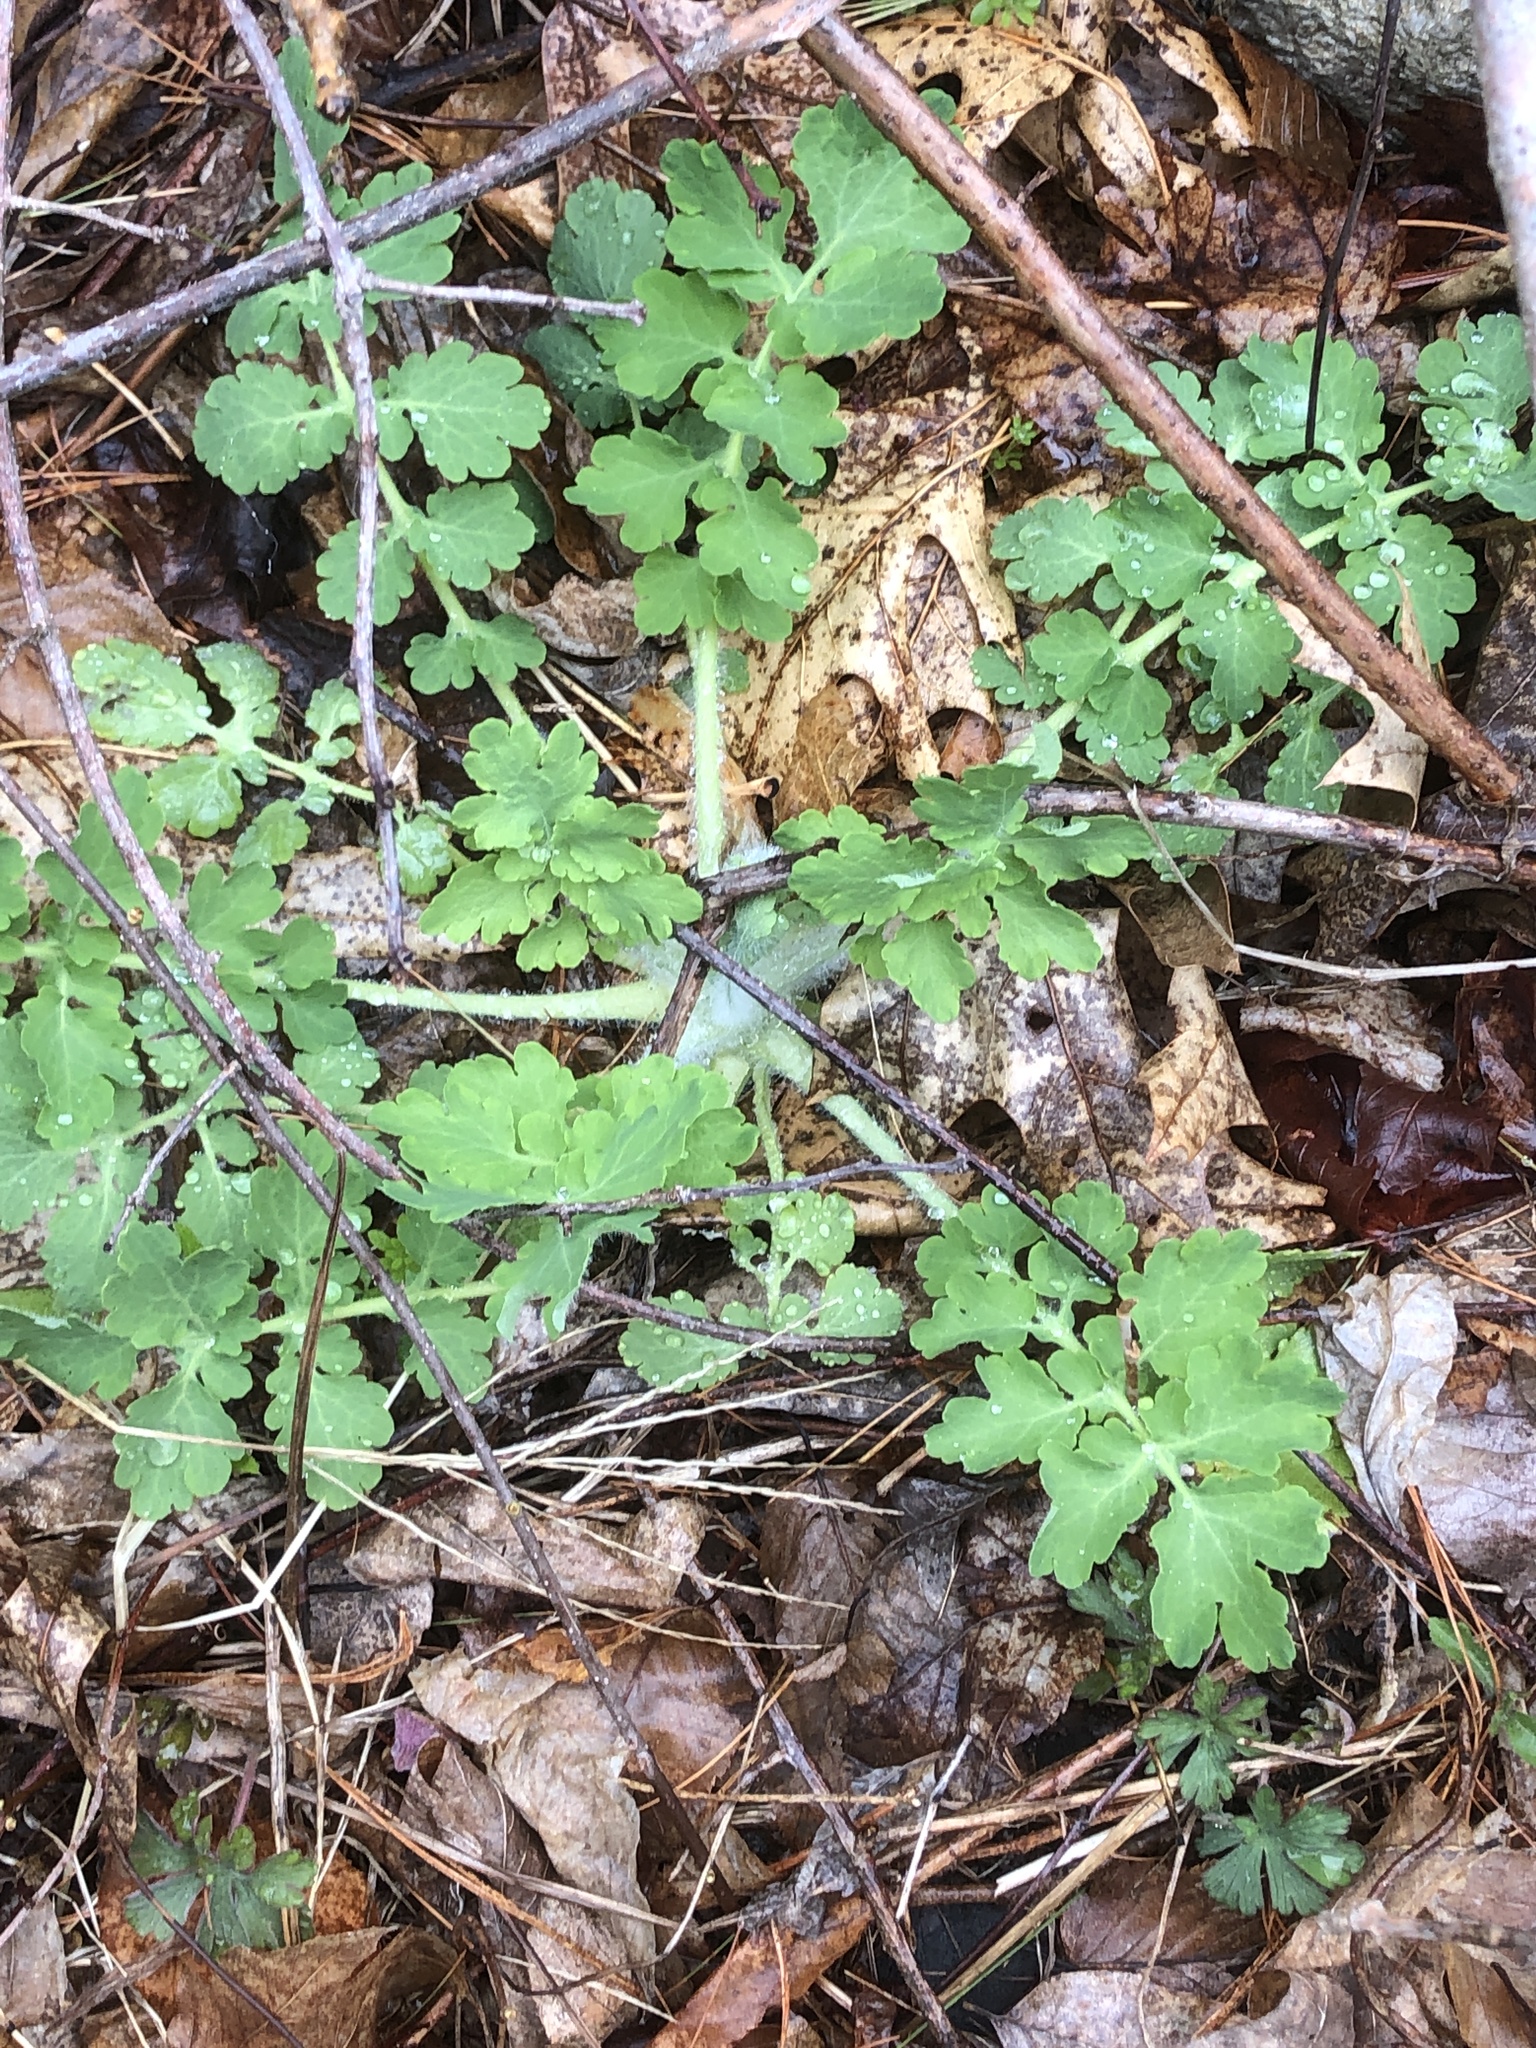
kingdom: Plantae
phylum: Tracheophyta
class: Magnoliopsida
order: Ranunculales
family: Papaveraceae
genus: Chelidonium
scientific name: Chelidonium majus
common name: Greater celandine
